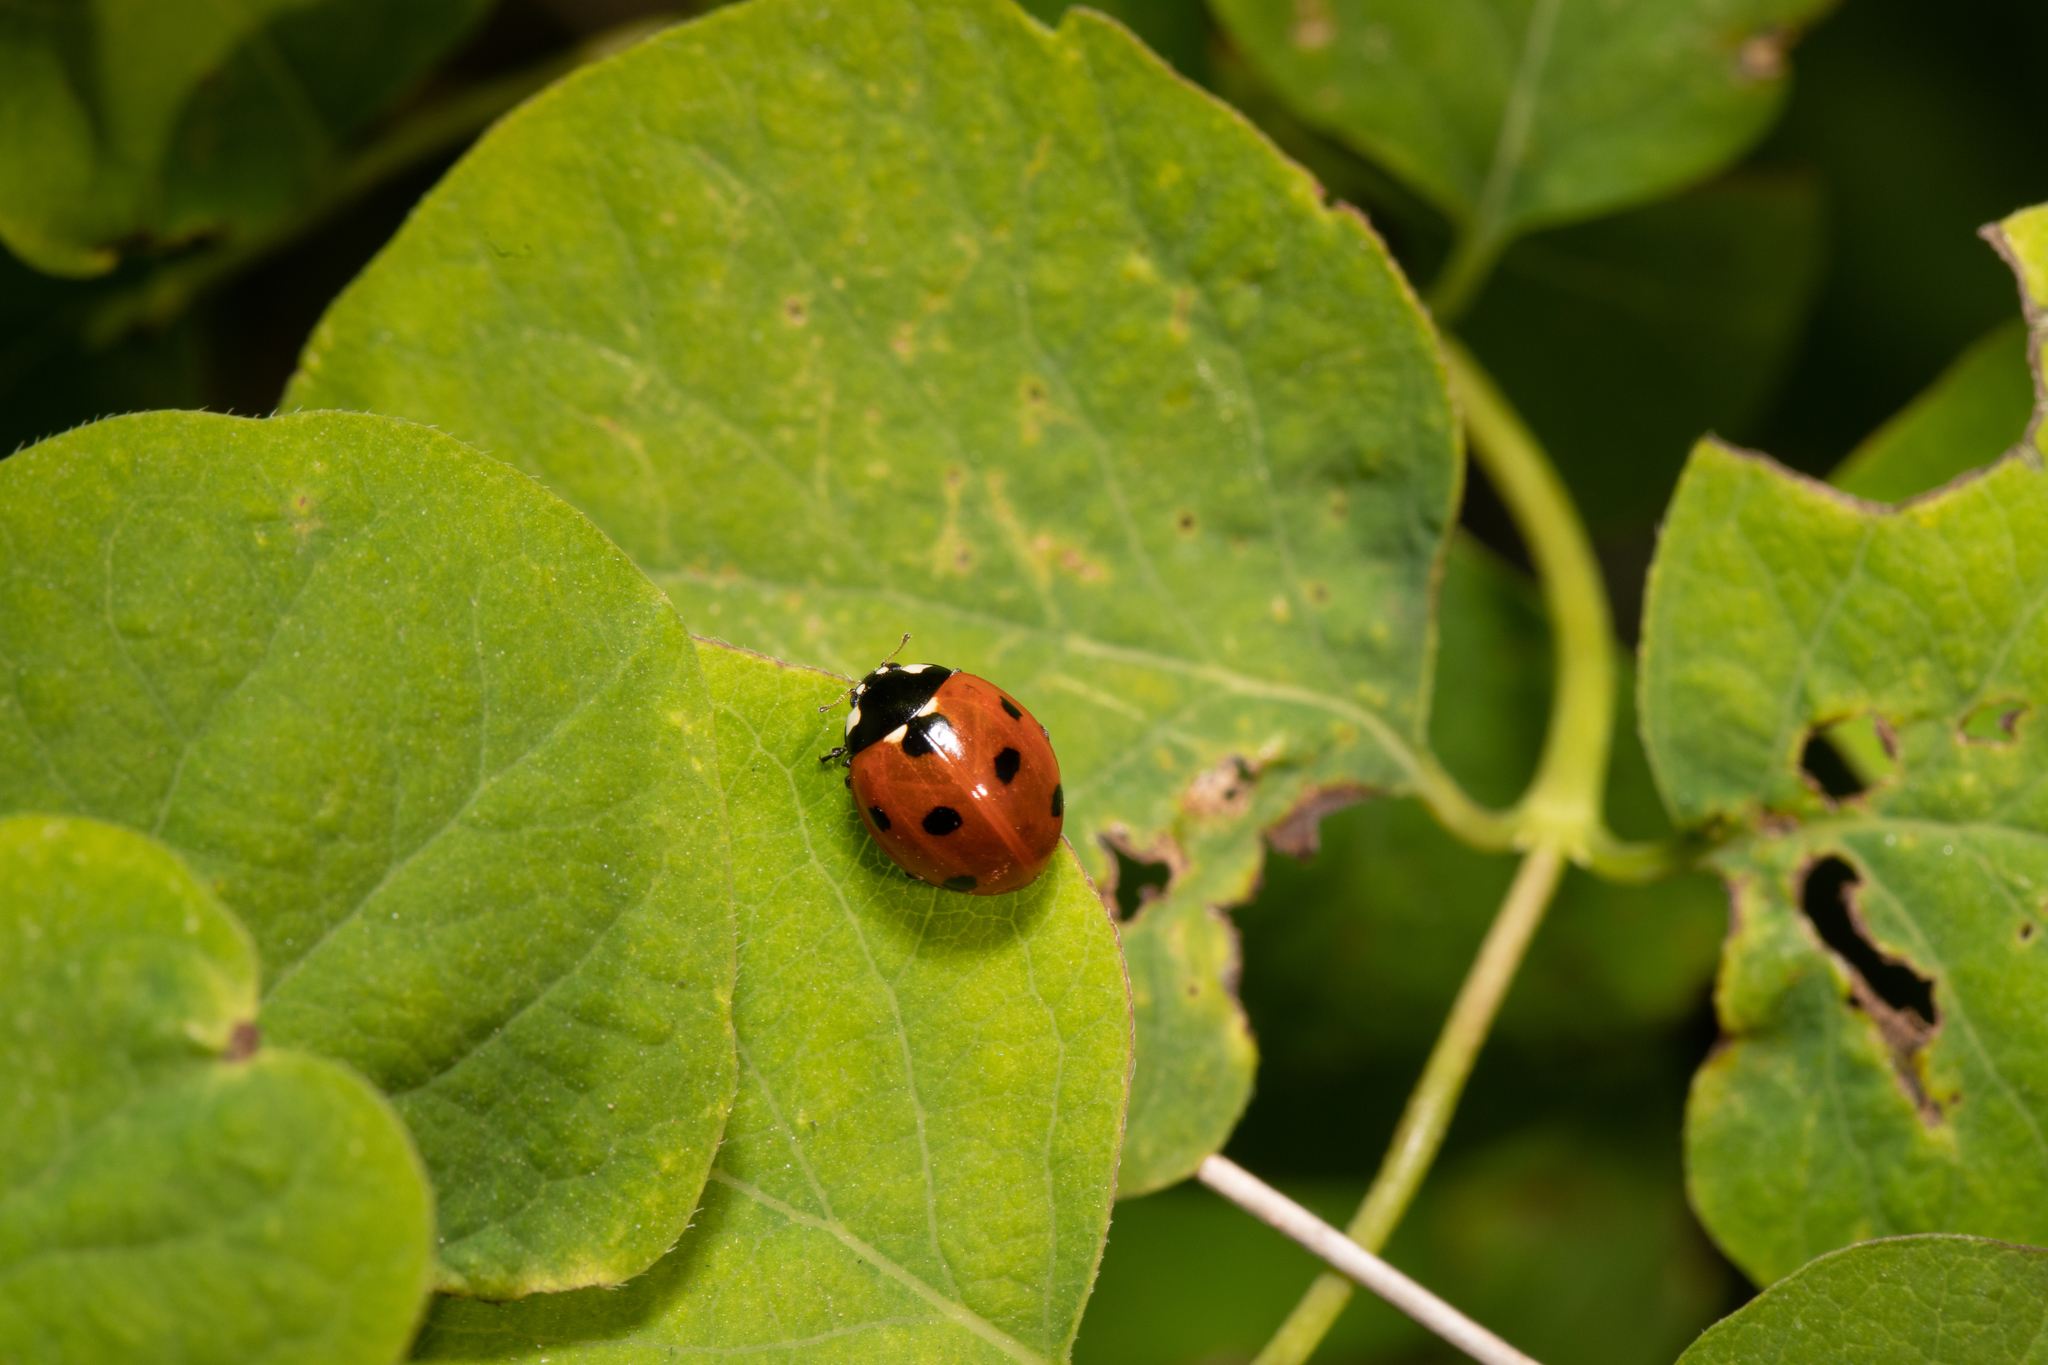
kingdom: Animalia
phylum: Arthropoda
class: Insecta
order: Coleoptera
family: Coccinellidae
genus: Coccinella
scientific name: Coccinella septempunctata
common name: Sevenspotted lady beetle
